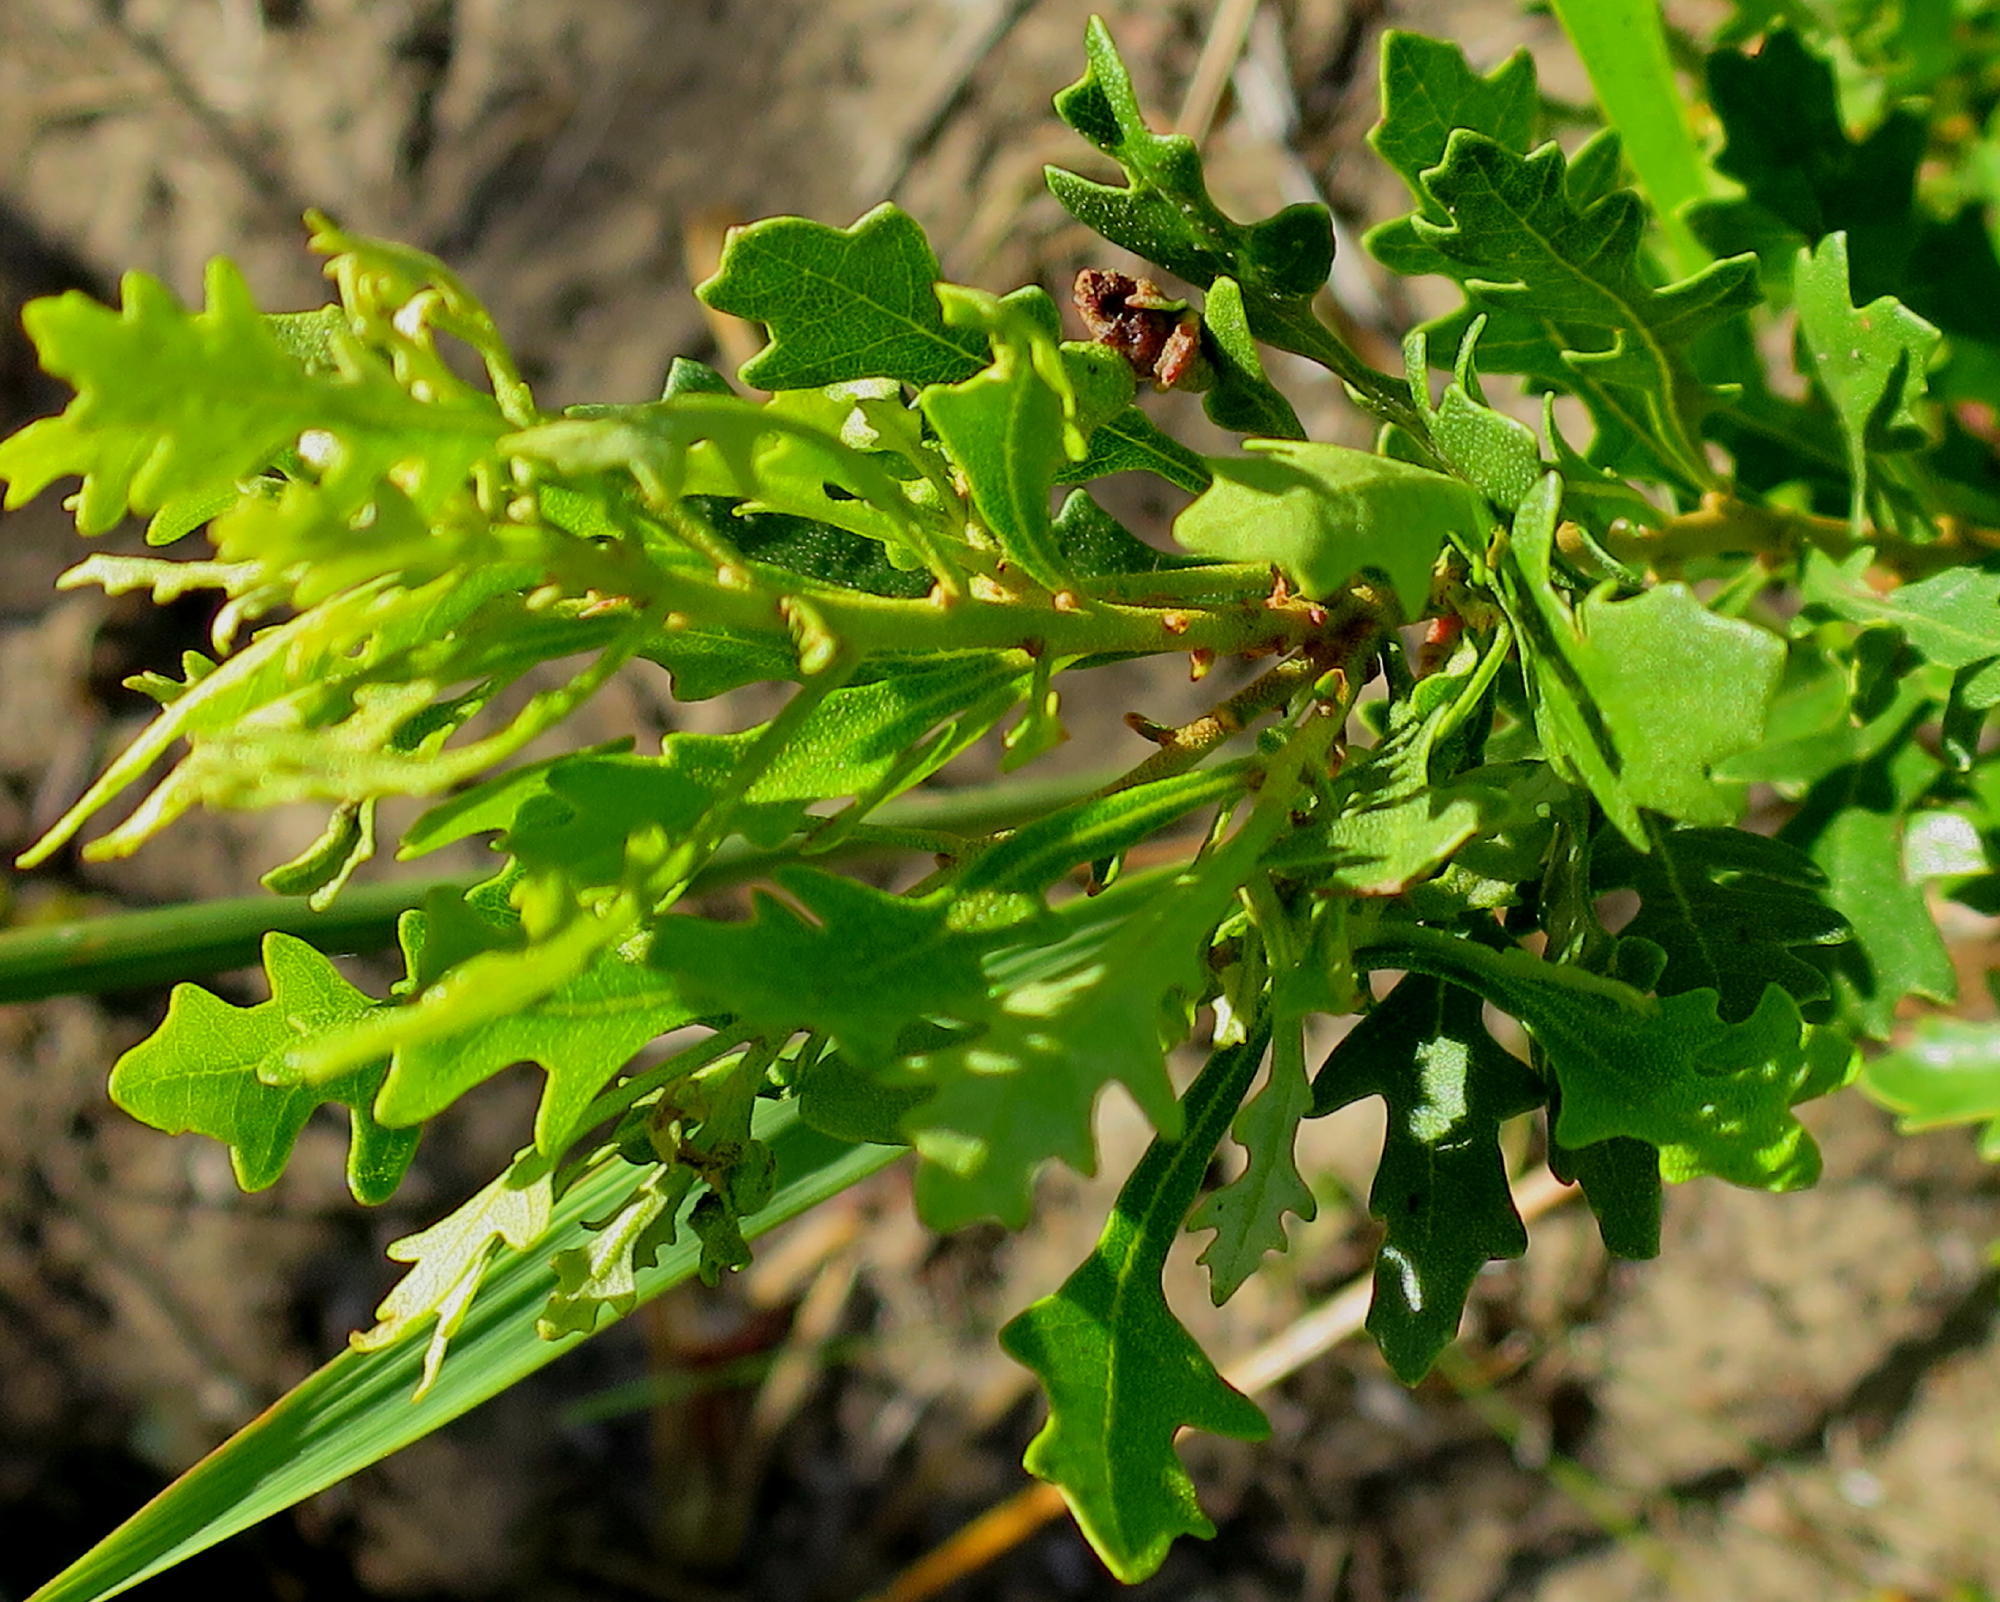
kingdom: Plantae
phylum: Tracheophyta
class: Magnoliopsida
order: Fagales
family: Myricaceae
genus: Morella
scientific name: Morella quercifolia
